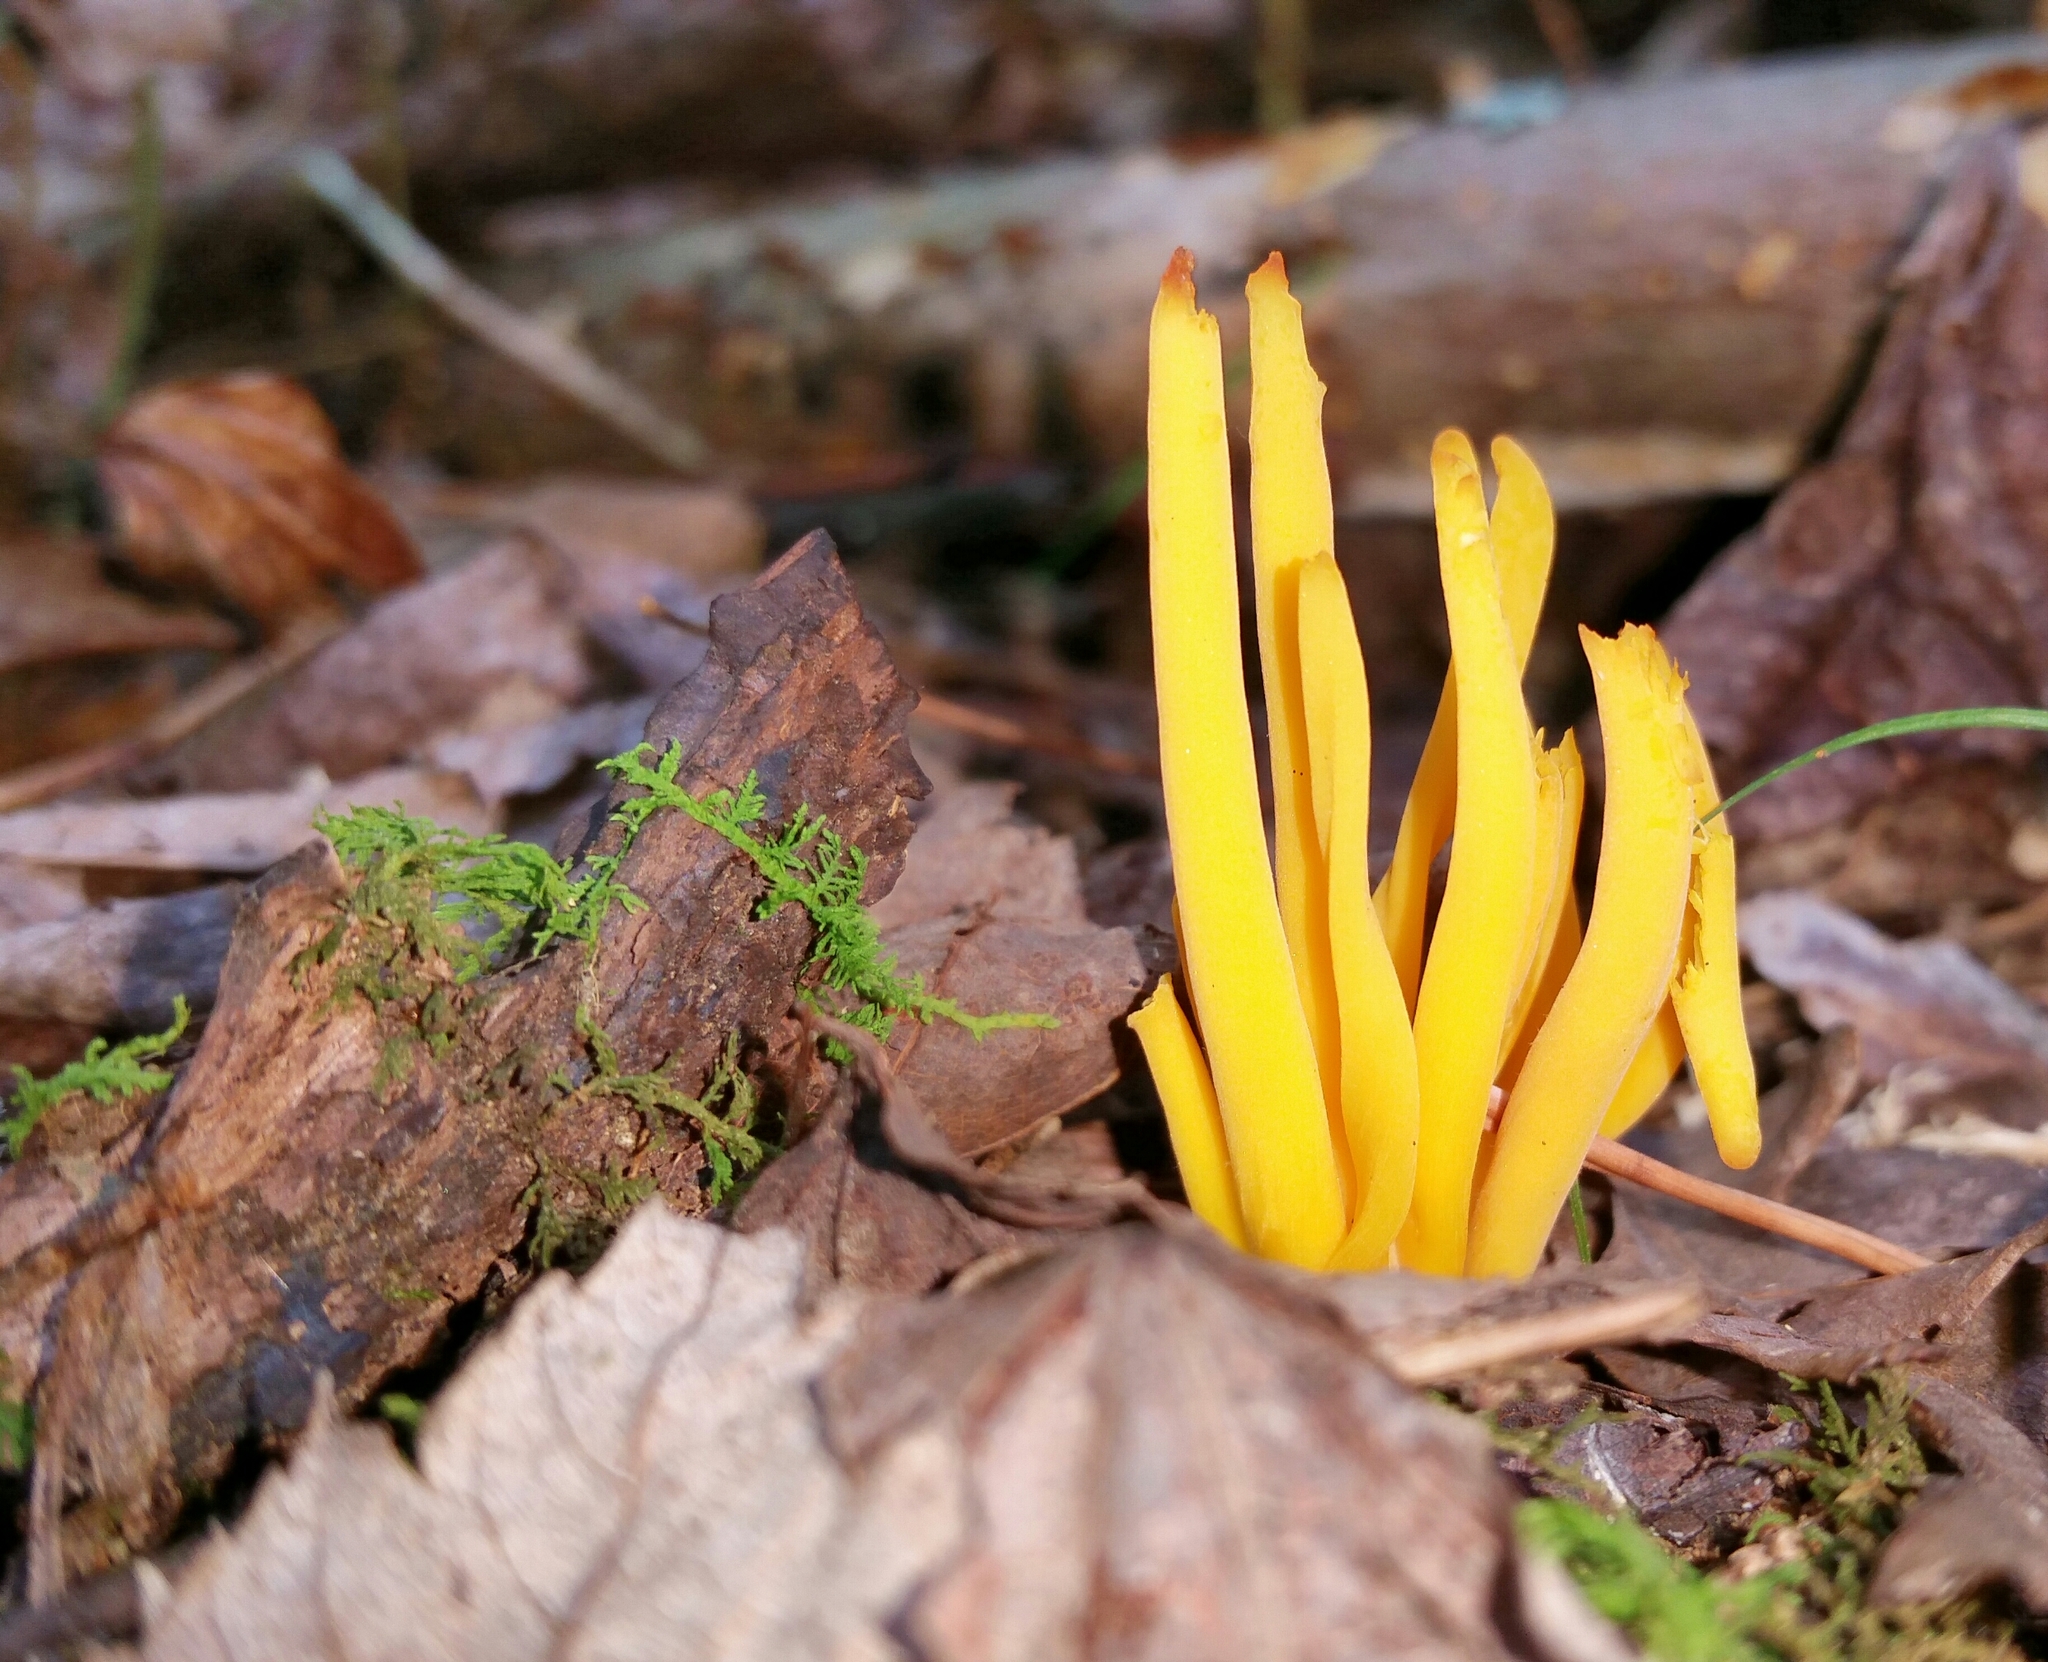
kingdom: Fungi
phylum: Basidiomycota
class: Agaricomycetes
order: Agaricales
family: Clavariaceae
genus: Clavulinopsis
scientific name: Clavulinopsis fusiformis
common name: Golden spindles
